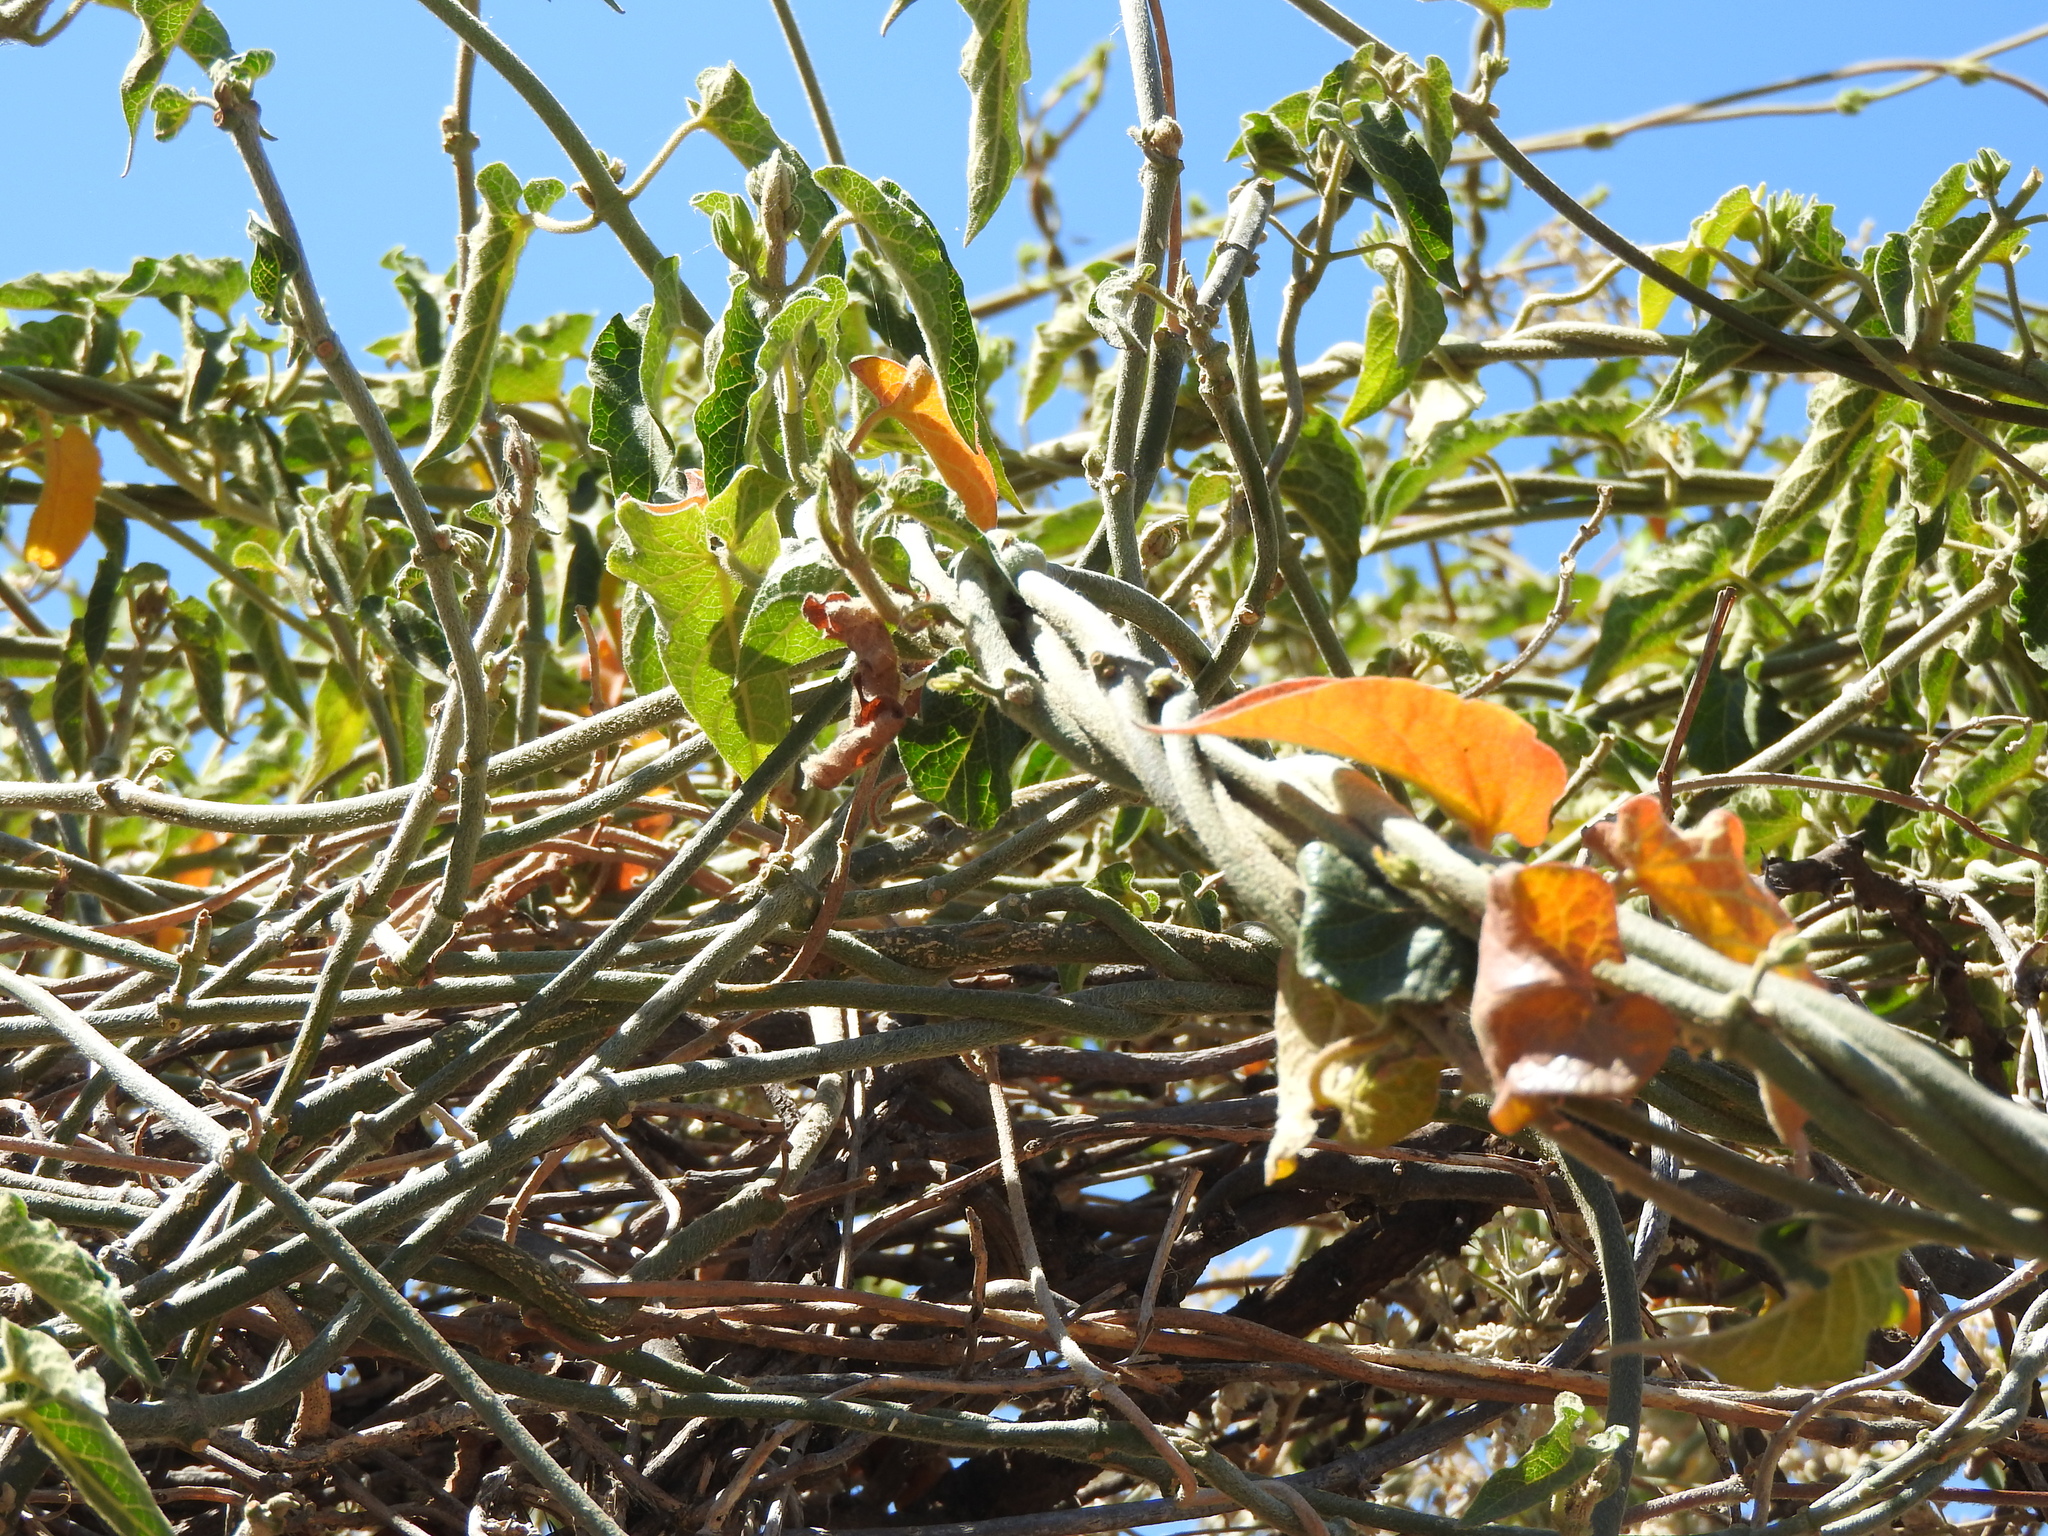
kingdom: Plantae
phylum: Tracheophyta
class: Magnoliopsida
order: Gentianales
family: Apocynaceae
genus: Gonolobus
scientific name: Gonolobus grandiflorus
